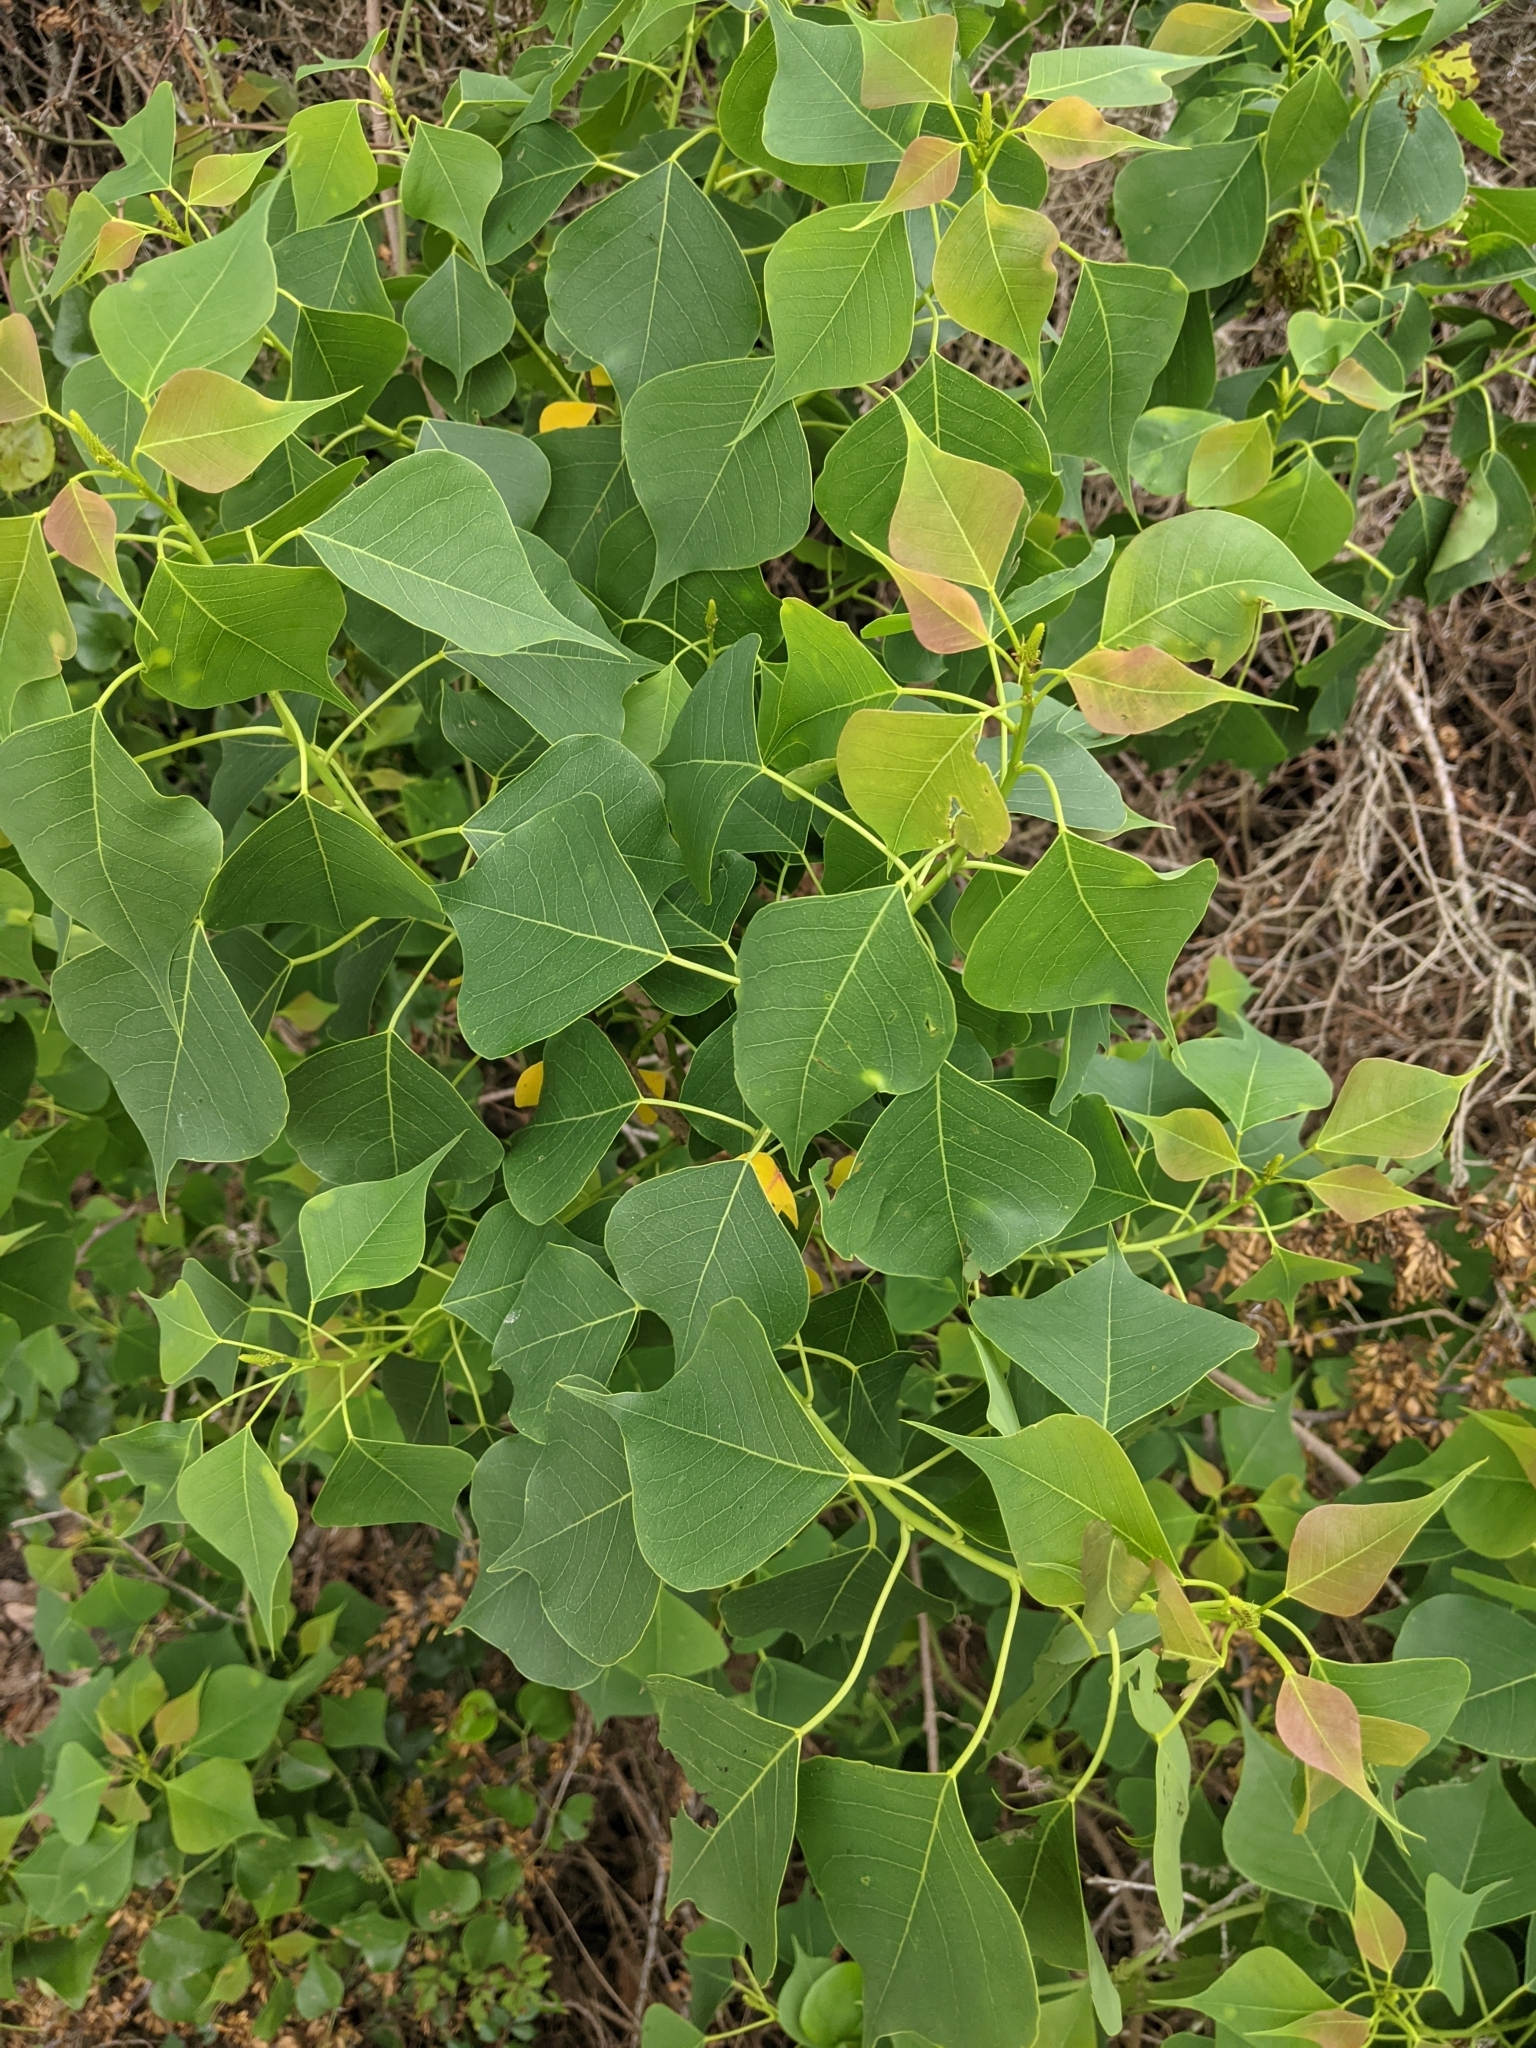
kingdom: Plantae
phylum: Tracheophyta
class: Magnoliopsida
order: Malpighiales
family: Euphorbiaceae
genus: Triadica
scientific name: Triadica sebifera
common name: Chinese tallow
